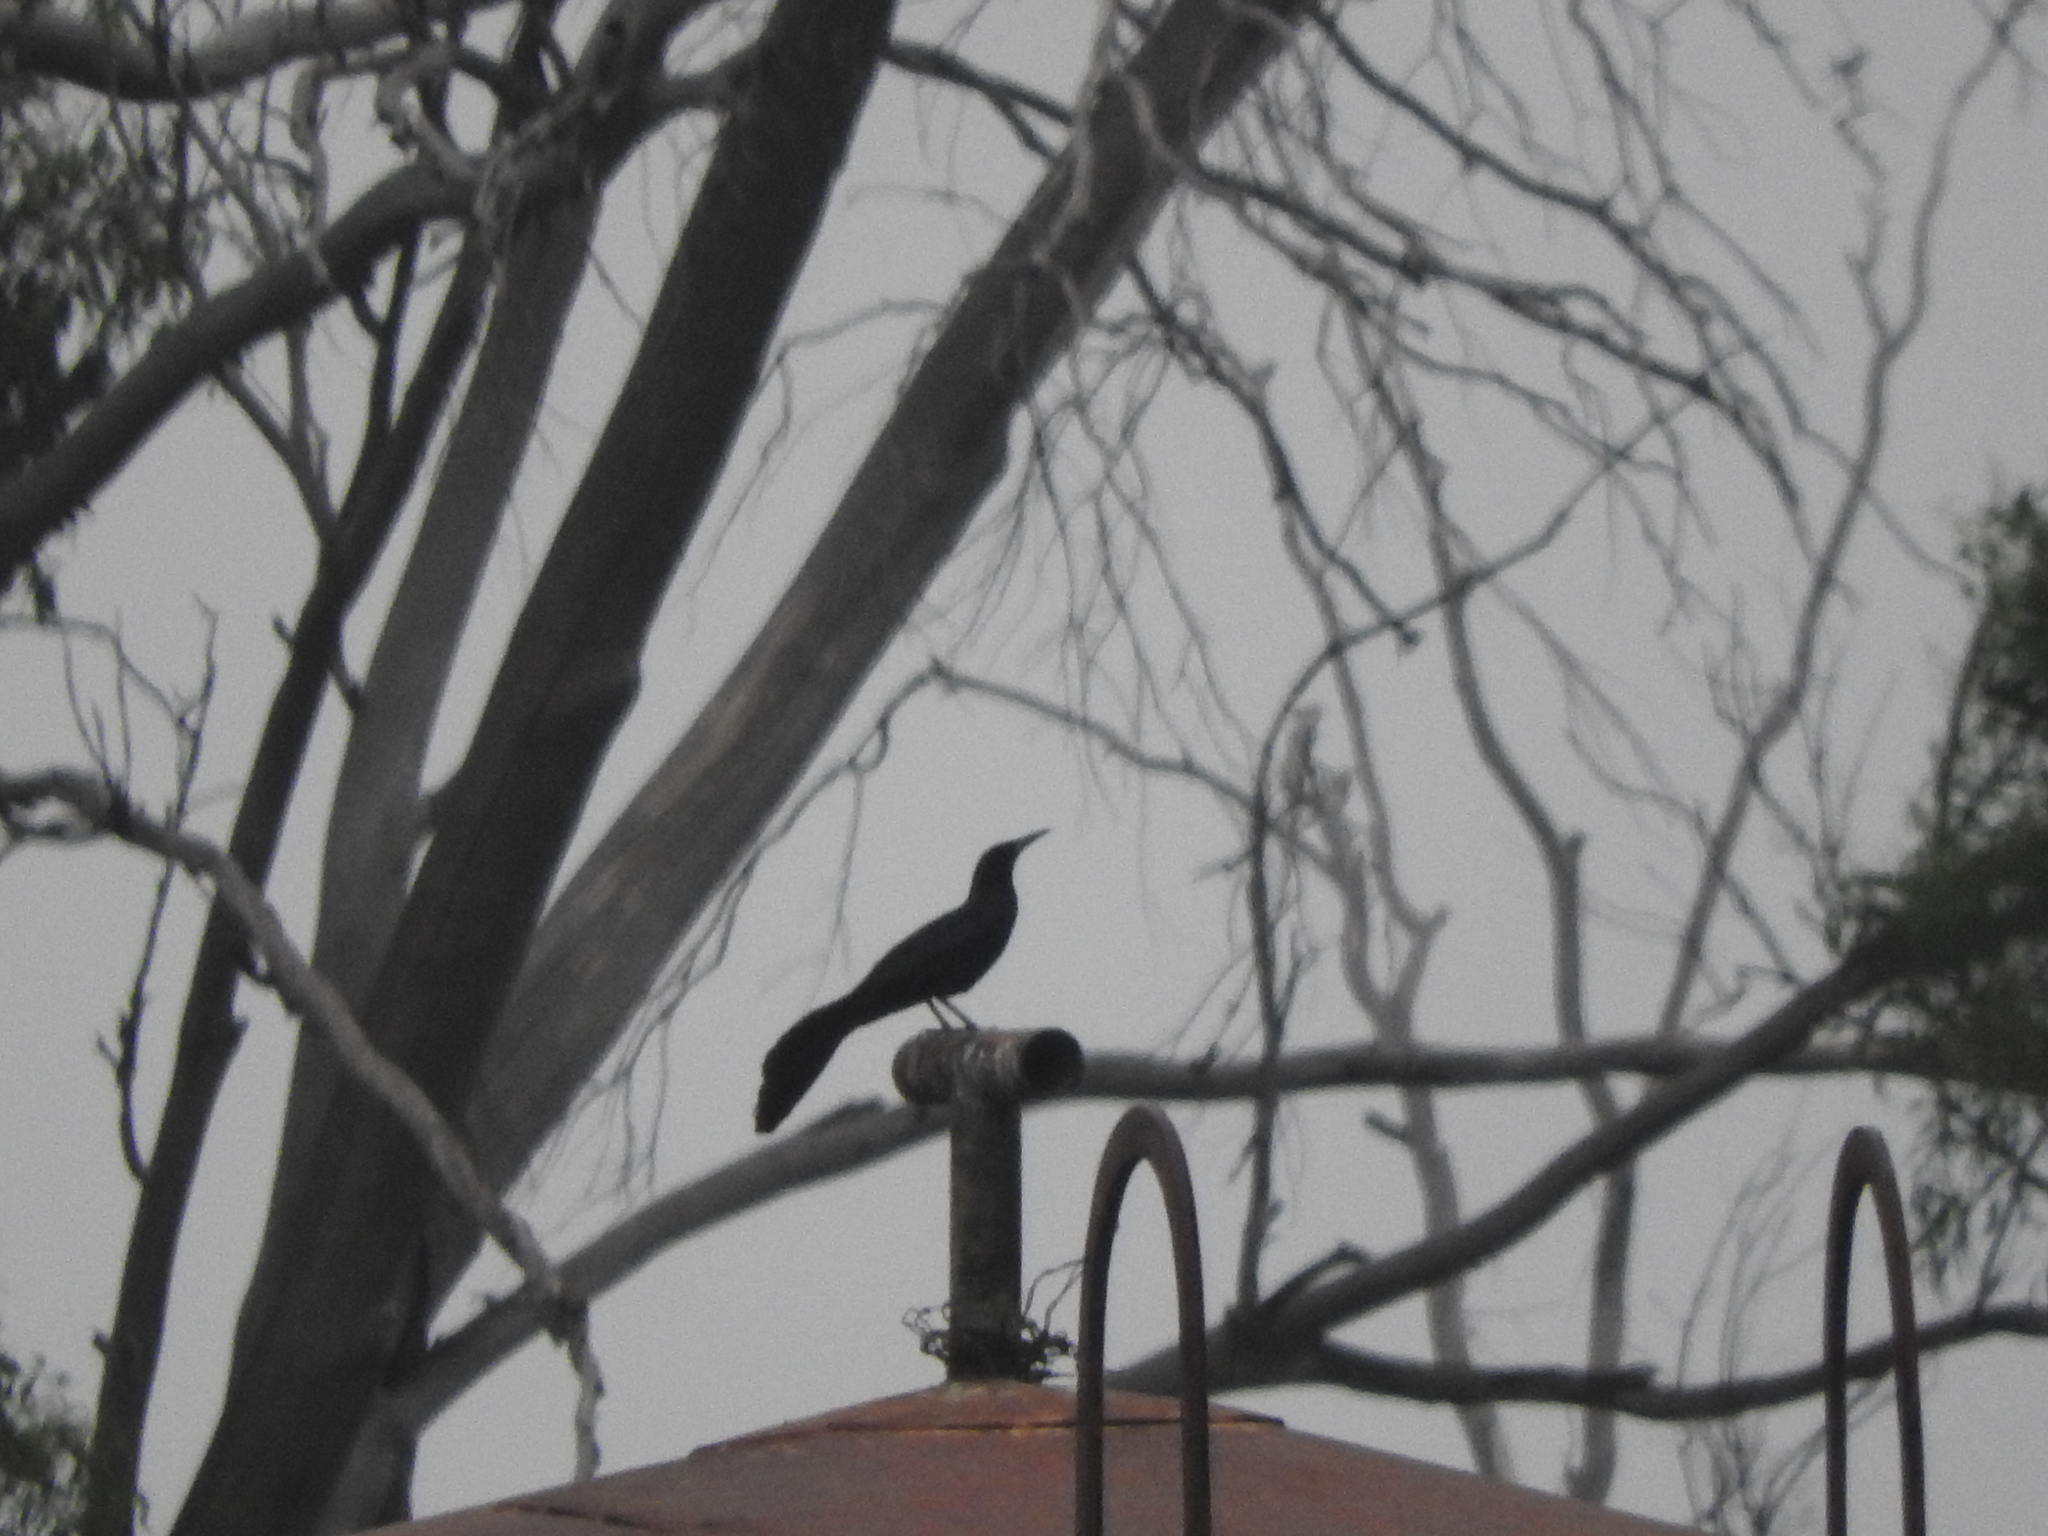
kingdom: Animalia
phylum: Chordata
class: Aves
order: Passeriformes
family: Icteridae
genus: Quiscalus
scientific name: Quiscalus mexicanus
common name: Great-tailed grackle
